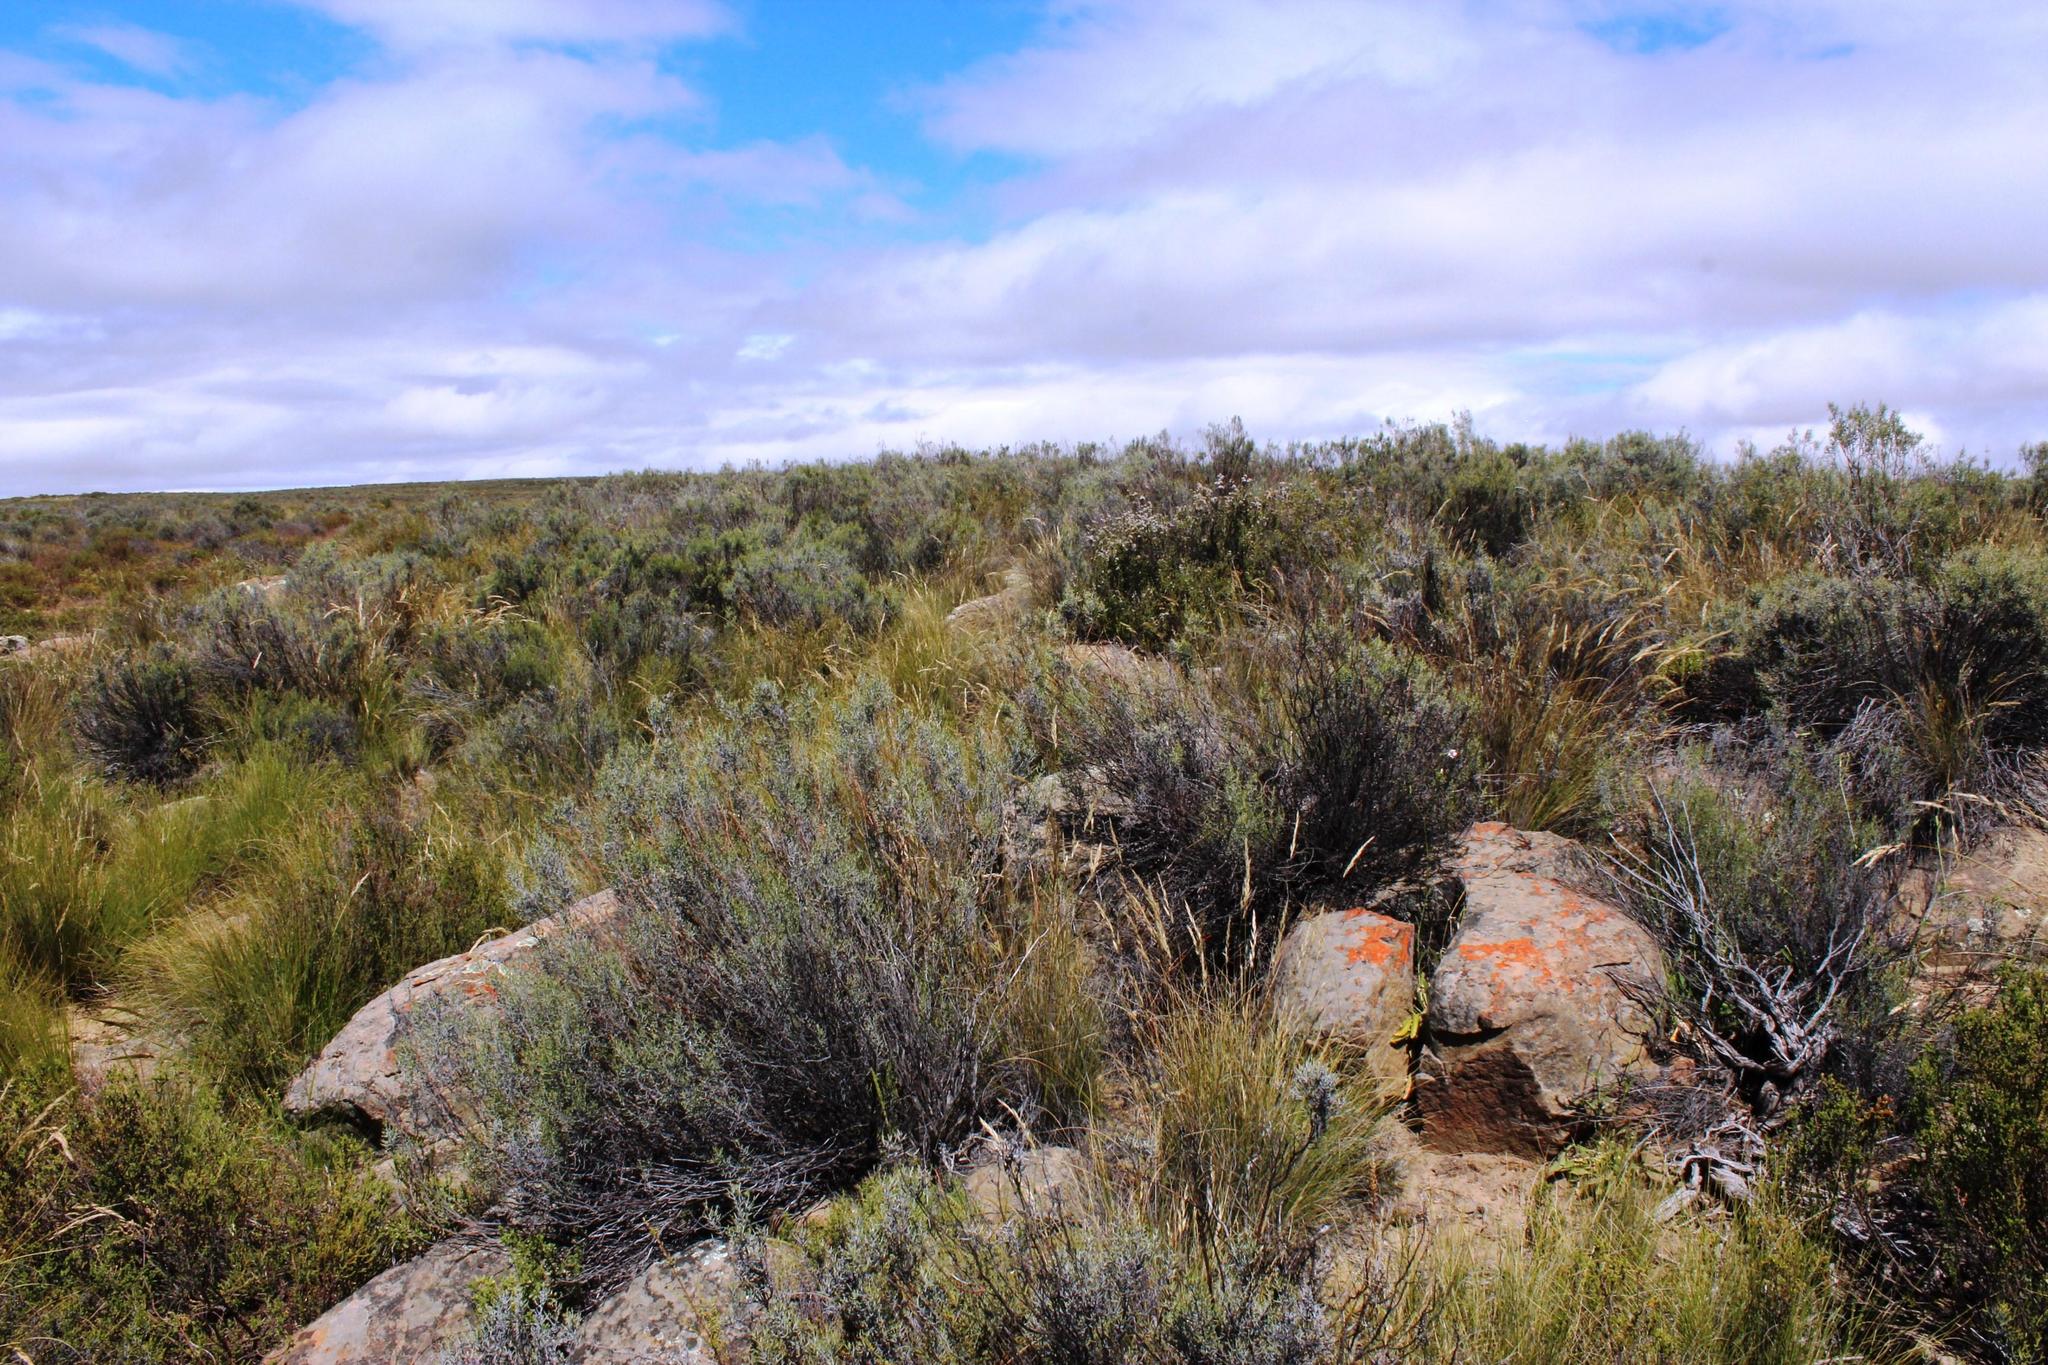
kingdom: Plantae
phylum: Tracheophyta
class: Magnoliopsida
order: Asterales
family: Asteraceae
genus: Dicerothamnus
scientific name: Dicerothamnus rhinocerotis
